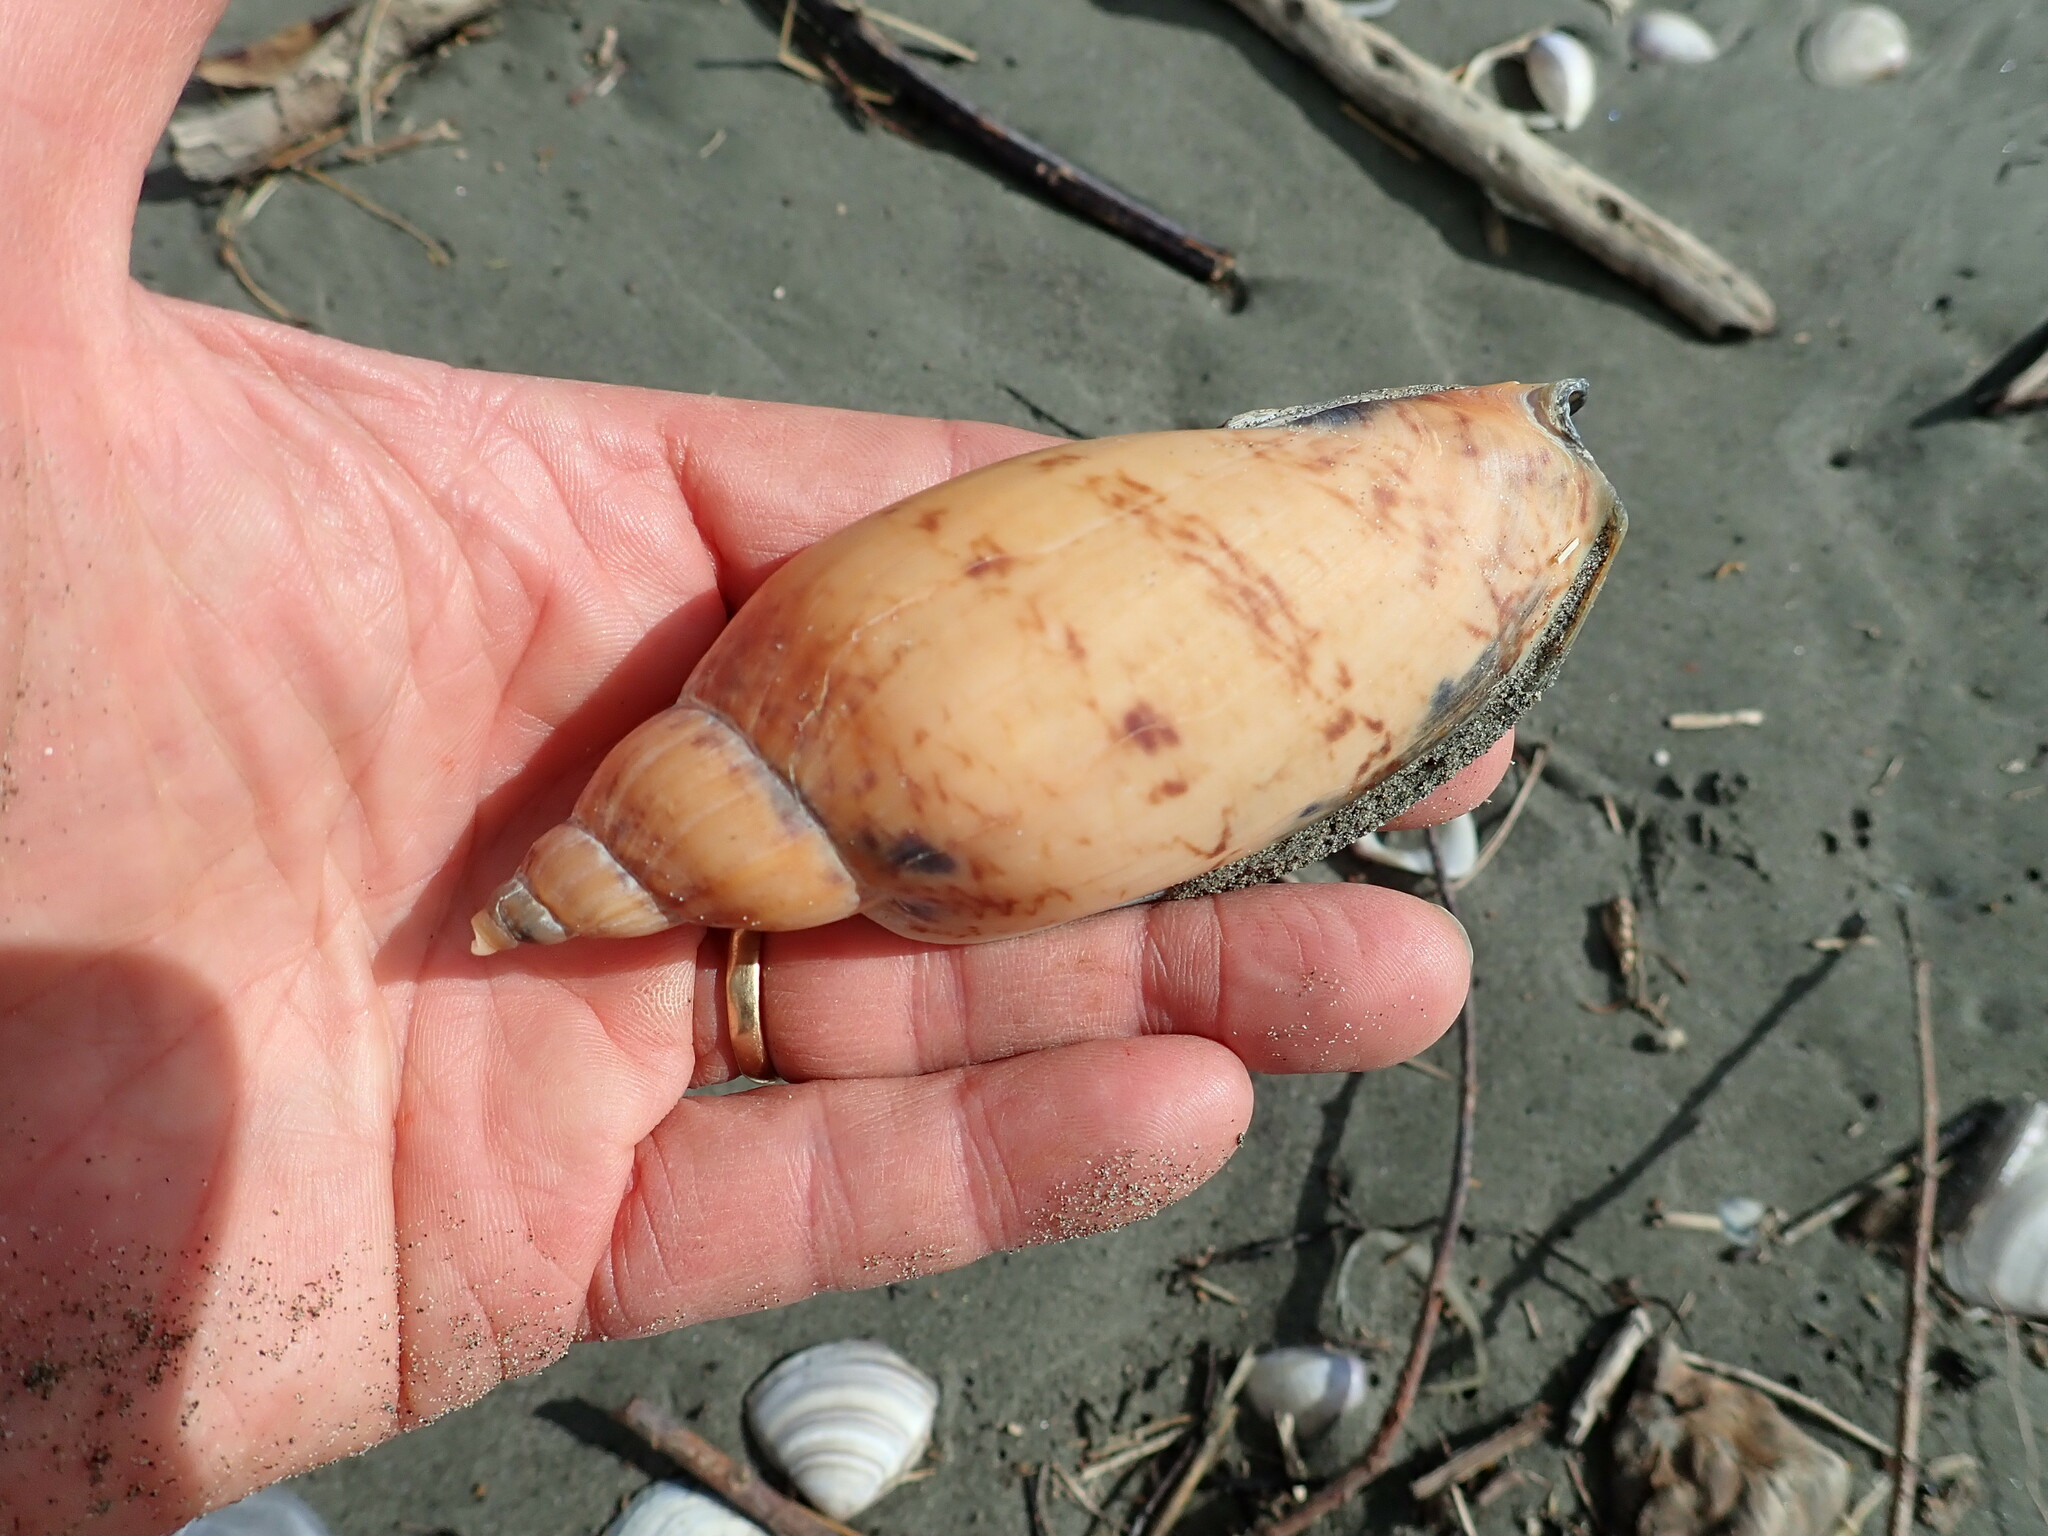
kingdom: Animalia
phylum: Mollusca
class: Gastropoda
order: Neogastropoda
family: Volutidae
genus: Alcithoe
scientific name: Alcithoe arabica
